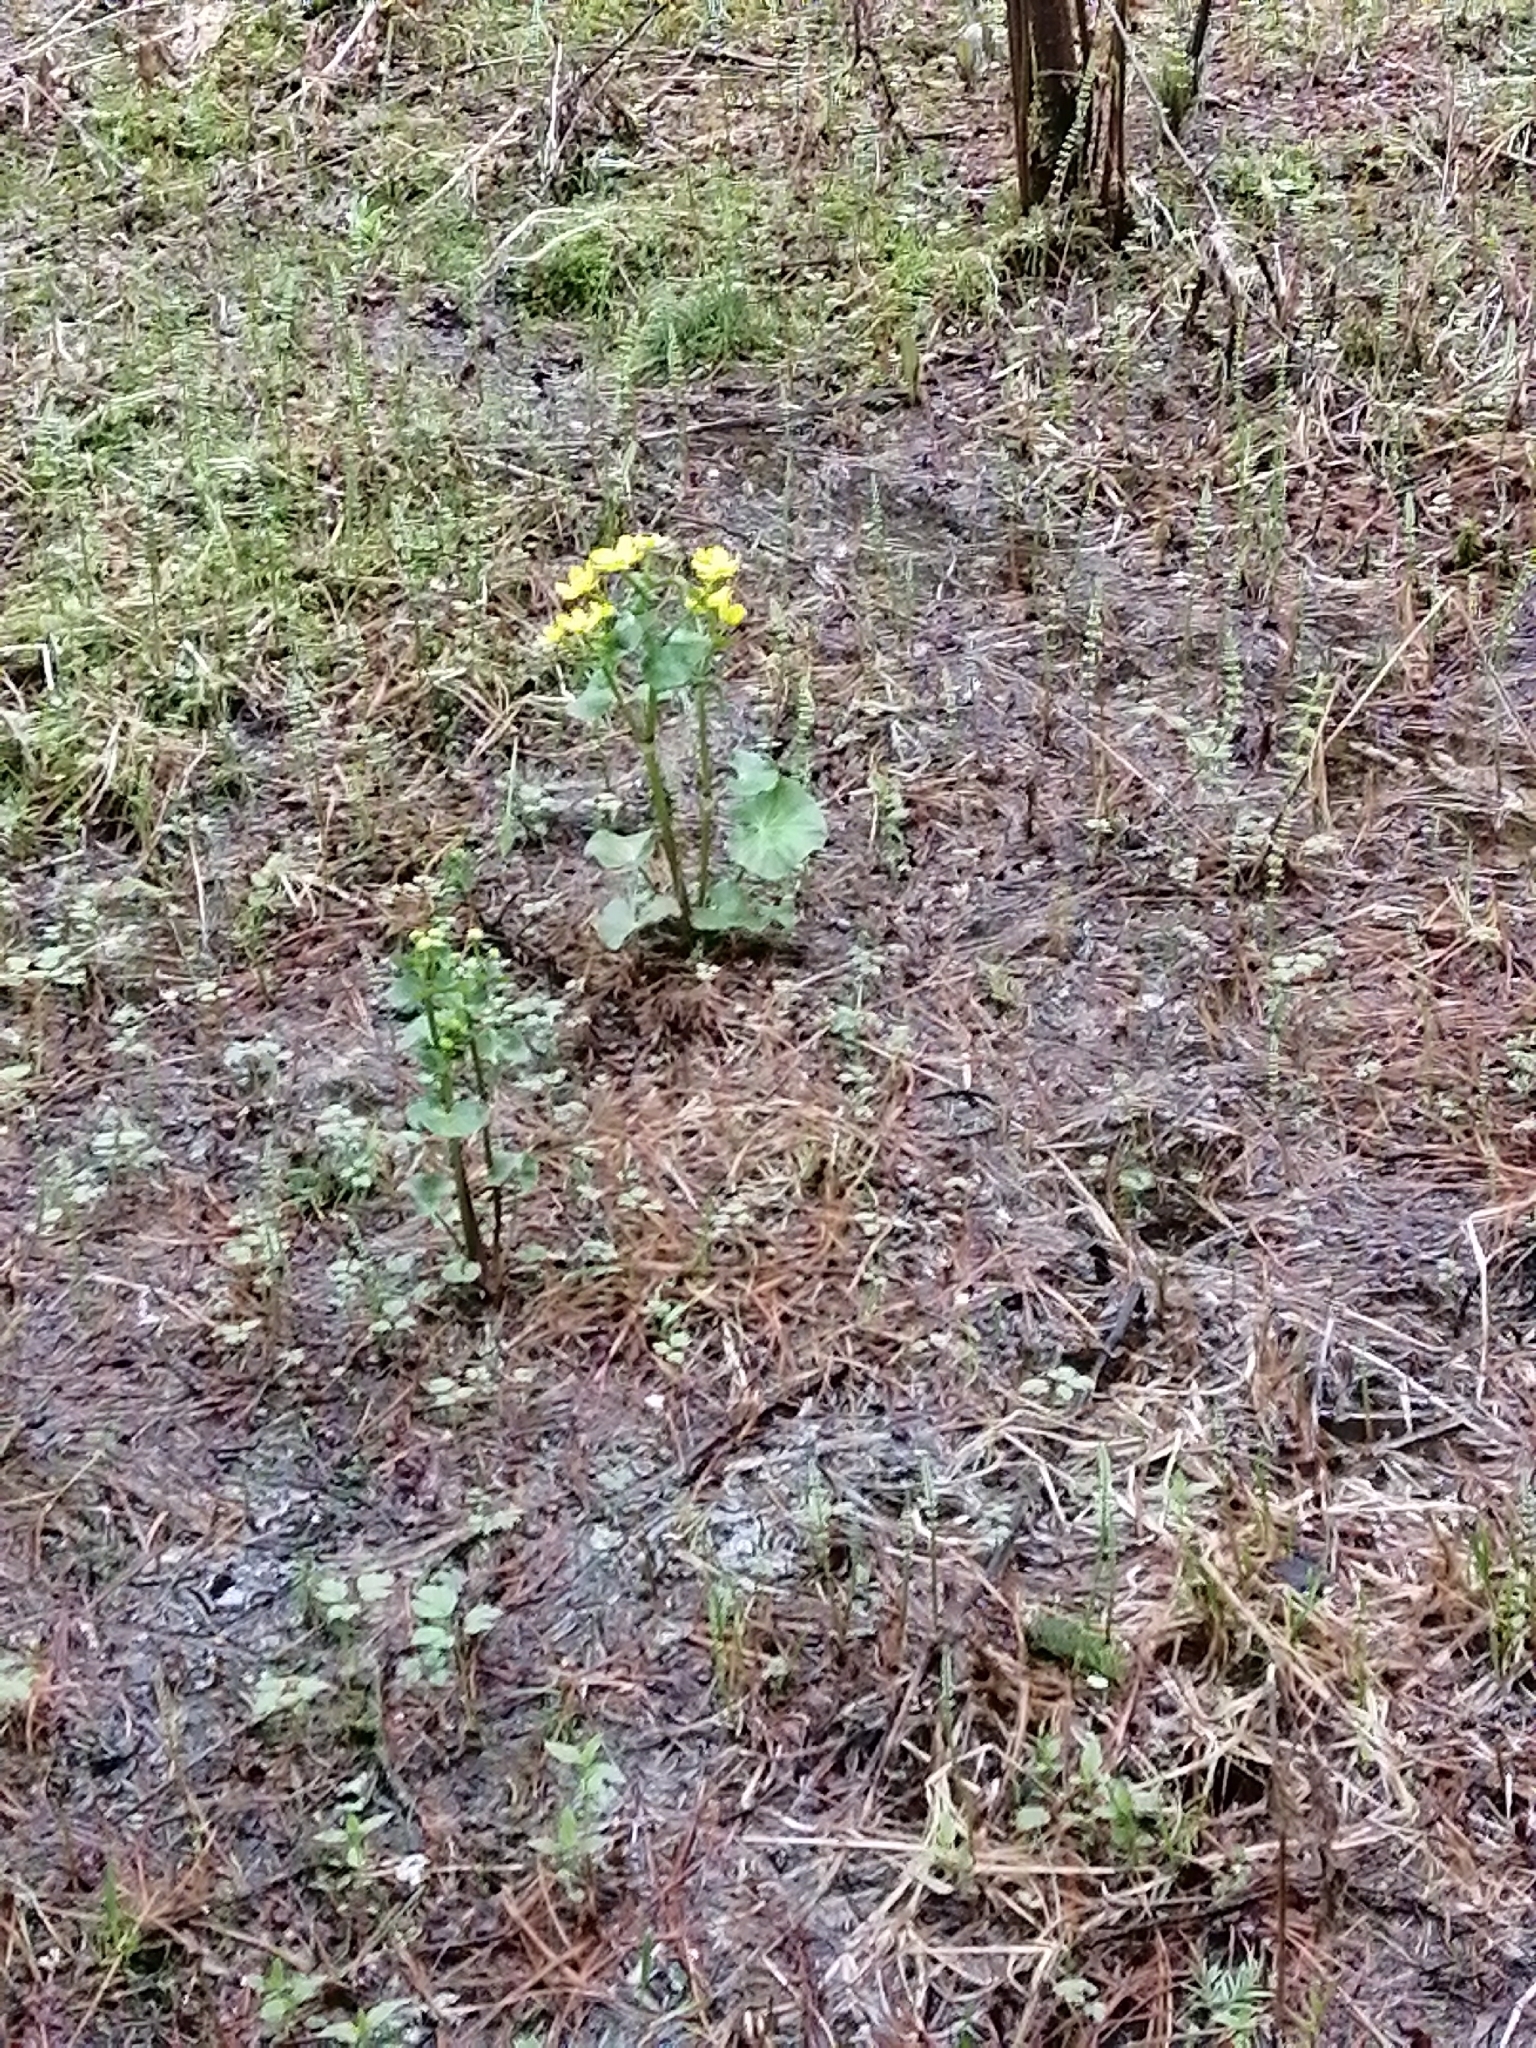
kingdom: Plantae
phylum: Tracheophyta
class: Magnoliopsida
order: Ranunculales
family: Ranunculaceae
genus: Caltha
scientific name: Caltha palustris
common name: Marsh marigold
